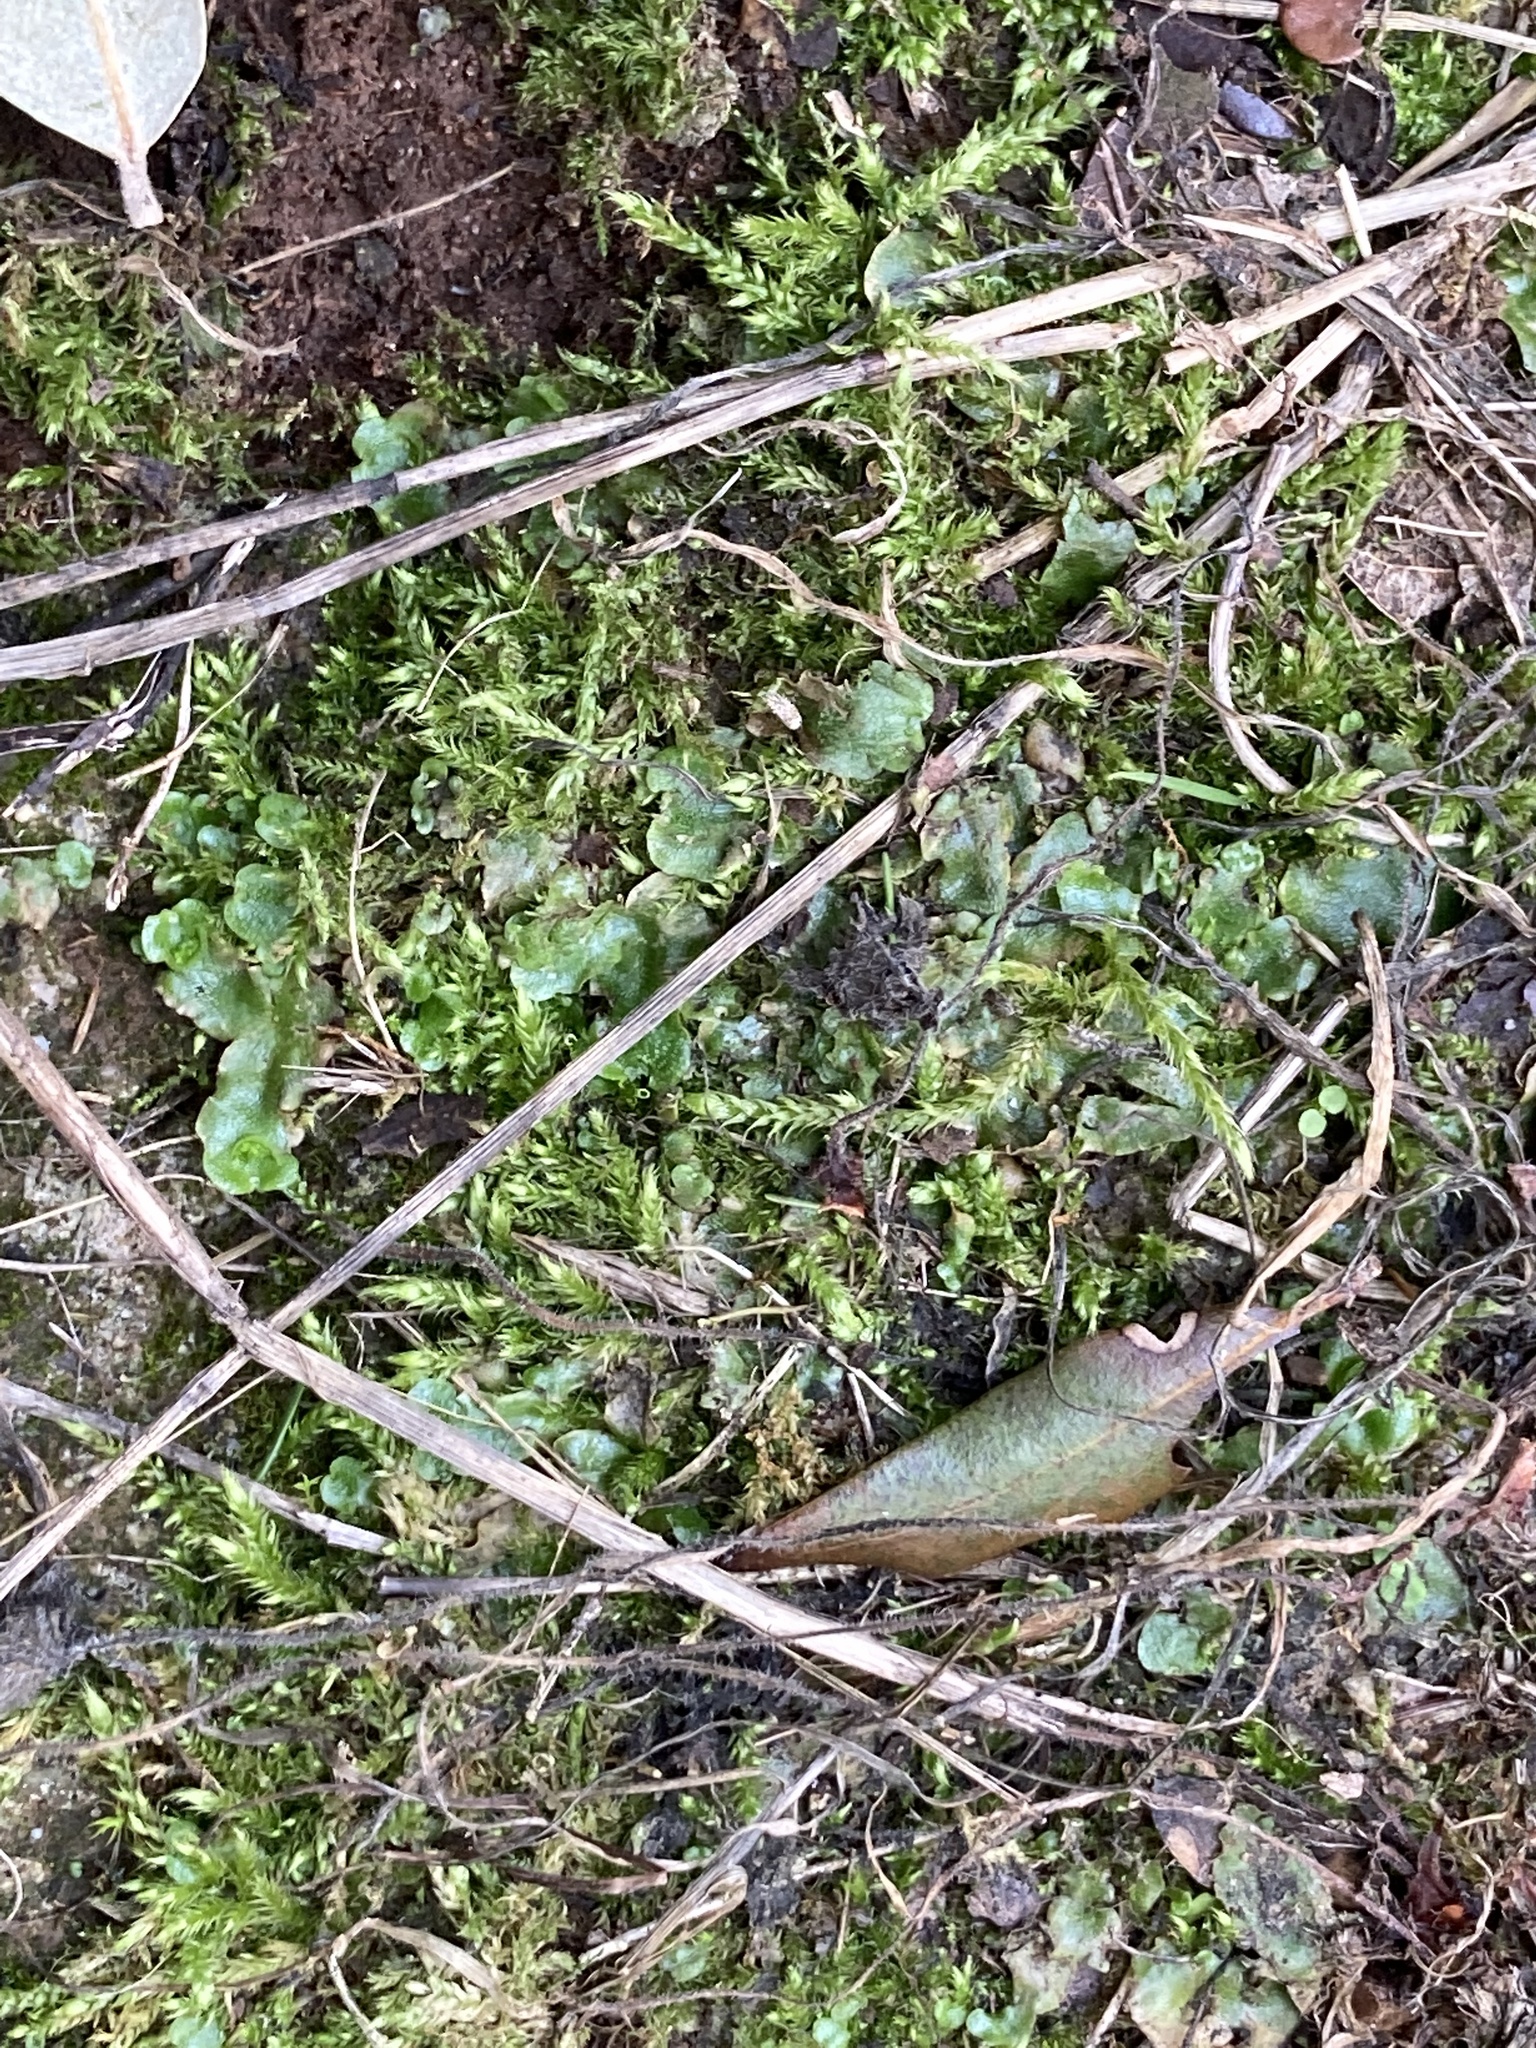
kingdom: Plantae
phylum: Marchantiophyta
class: Marchantiopsida
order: Lunulariales
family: Lunulariaceae
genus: Lunularia
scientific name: Lunularia cruciata
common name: Crescent-cup liverwort
